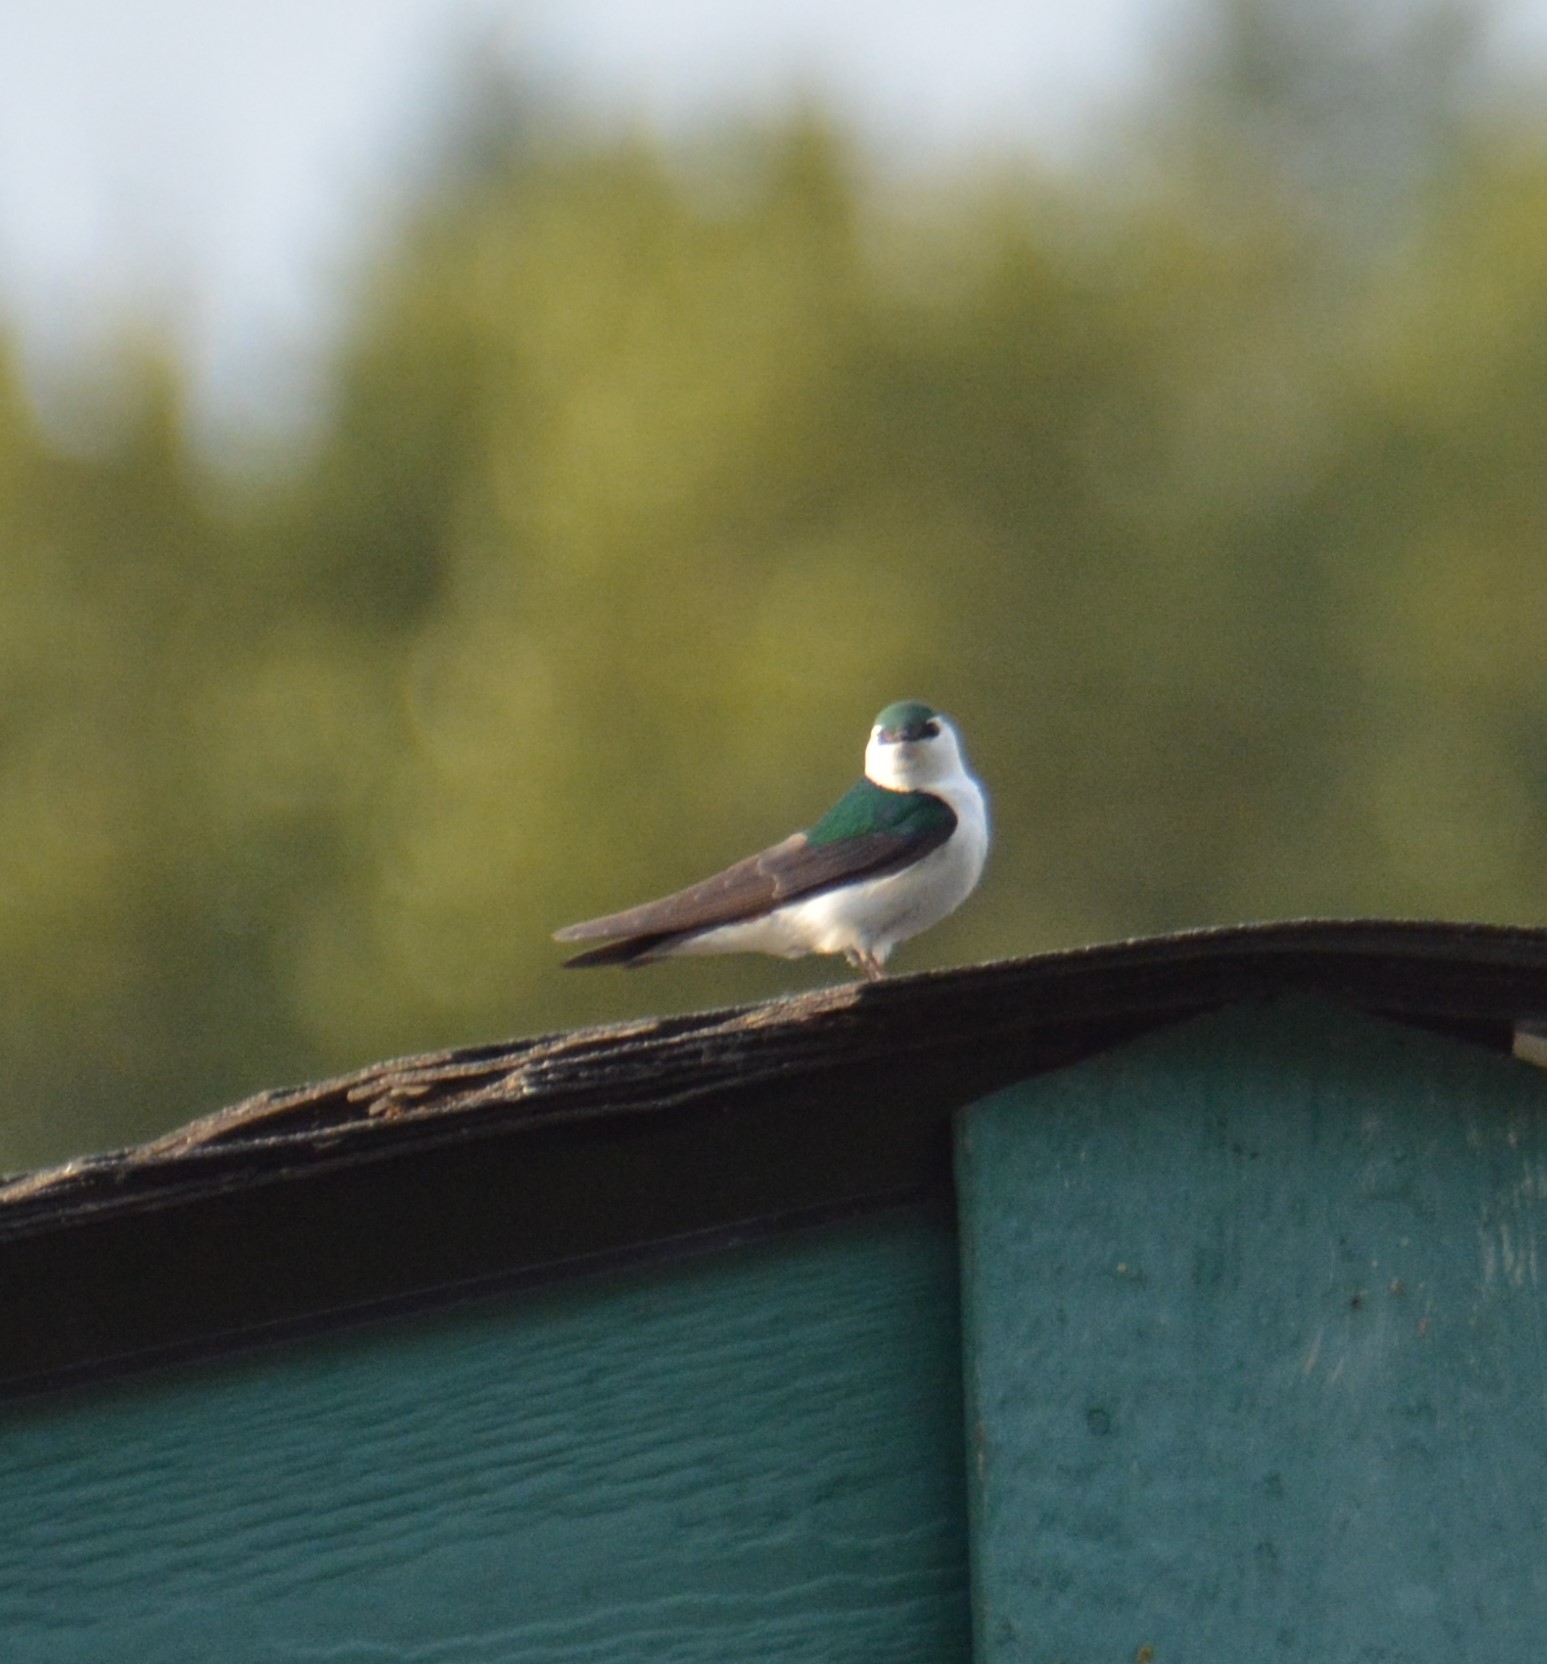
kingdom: Animalia
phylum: Chordata
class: Aves
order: Passeriformes
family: Hirundinidae
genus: Tachycineta
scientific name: Tachycineta thalassina
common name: Violet-green swallow
